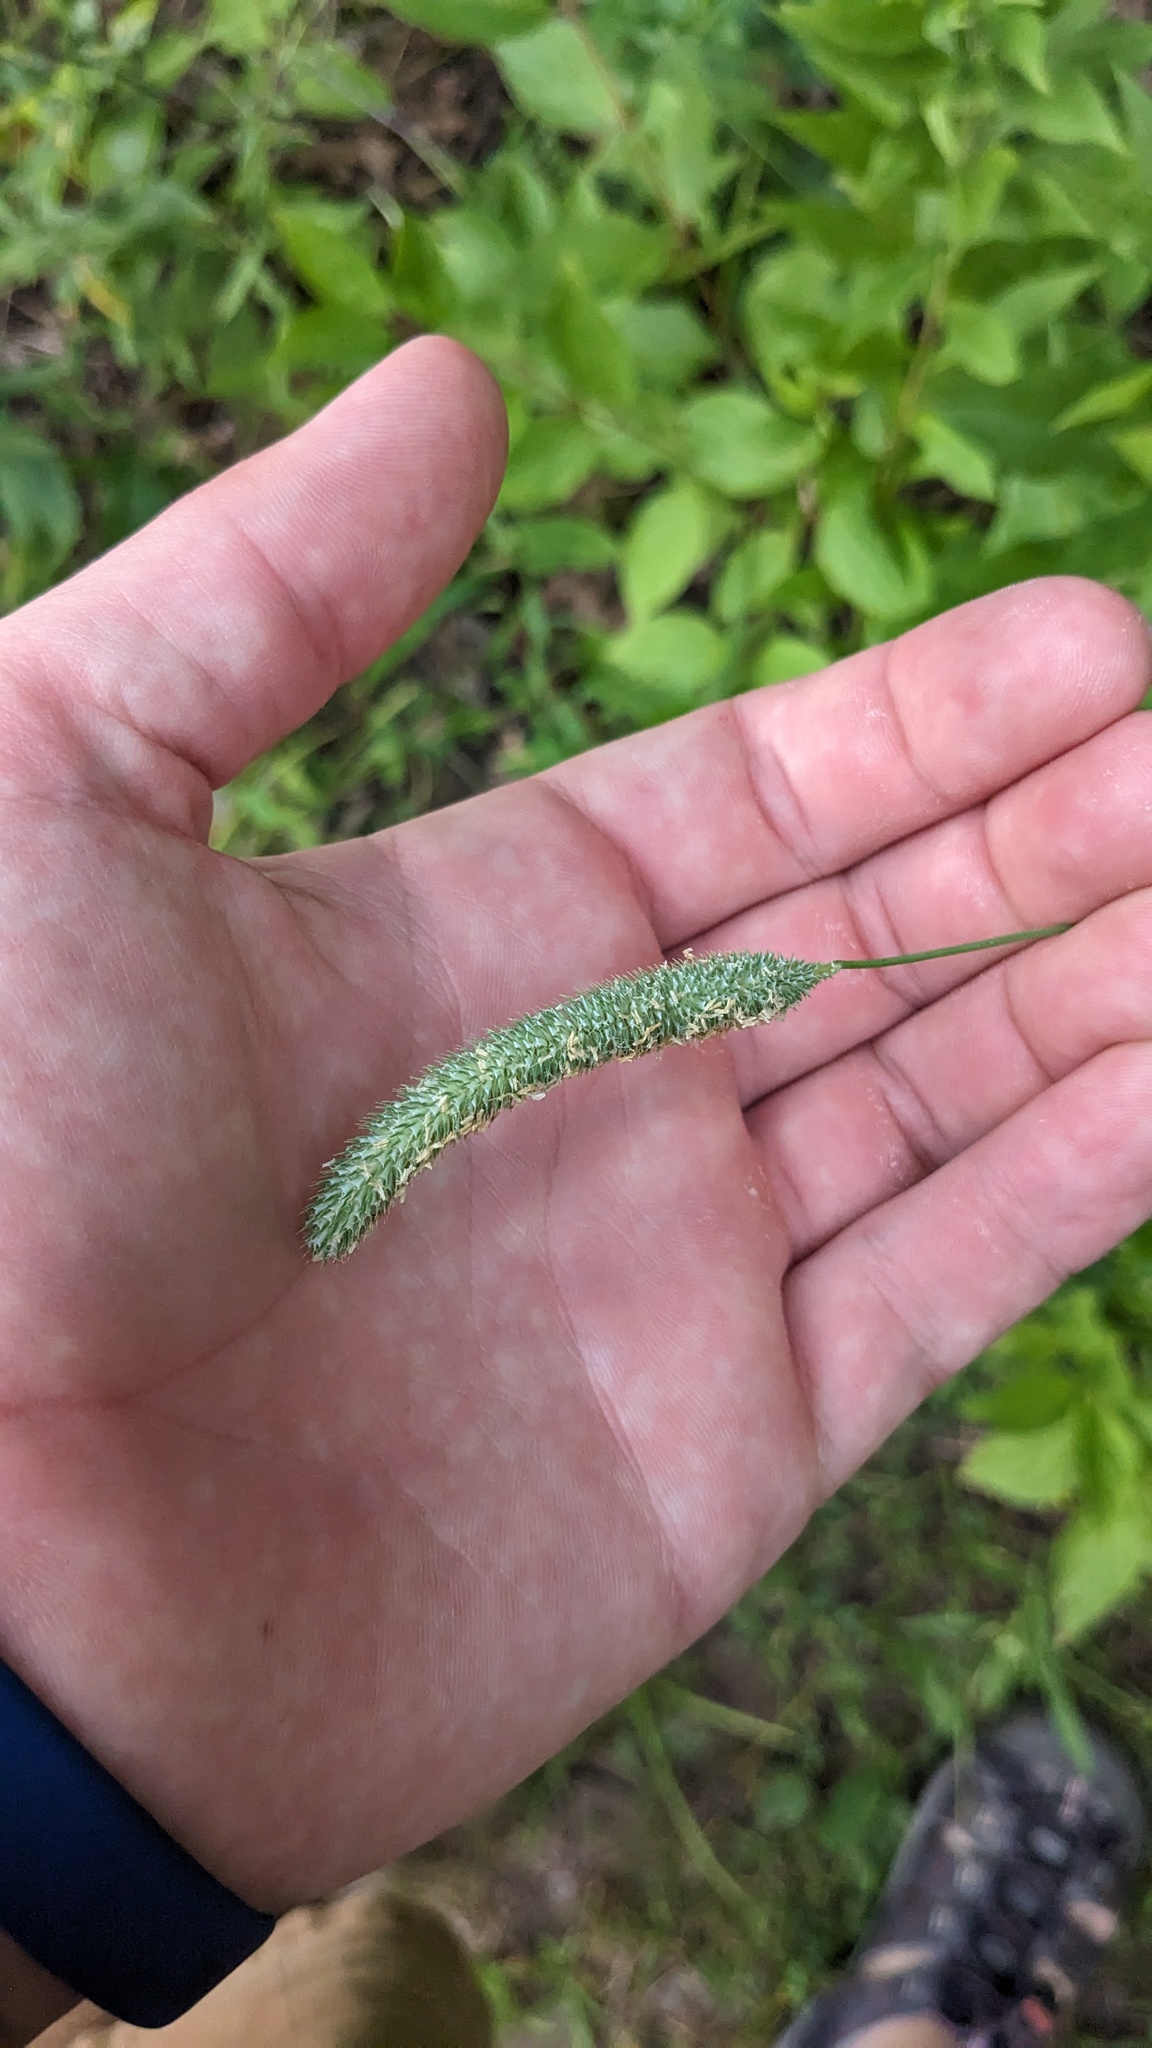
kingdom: Plantae
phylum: Tracheophyta
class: Liliopsida
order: Poales
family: Poaceae
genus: Phleum
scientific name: Phleum pratense
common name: Timothy grass
